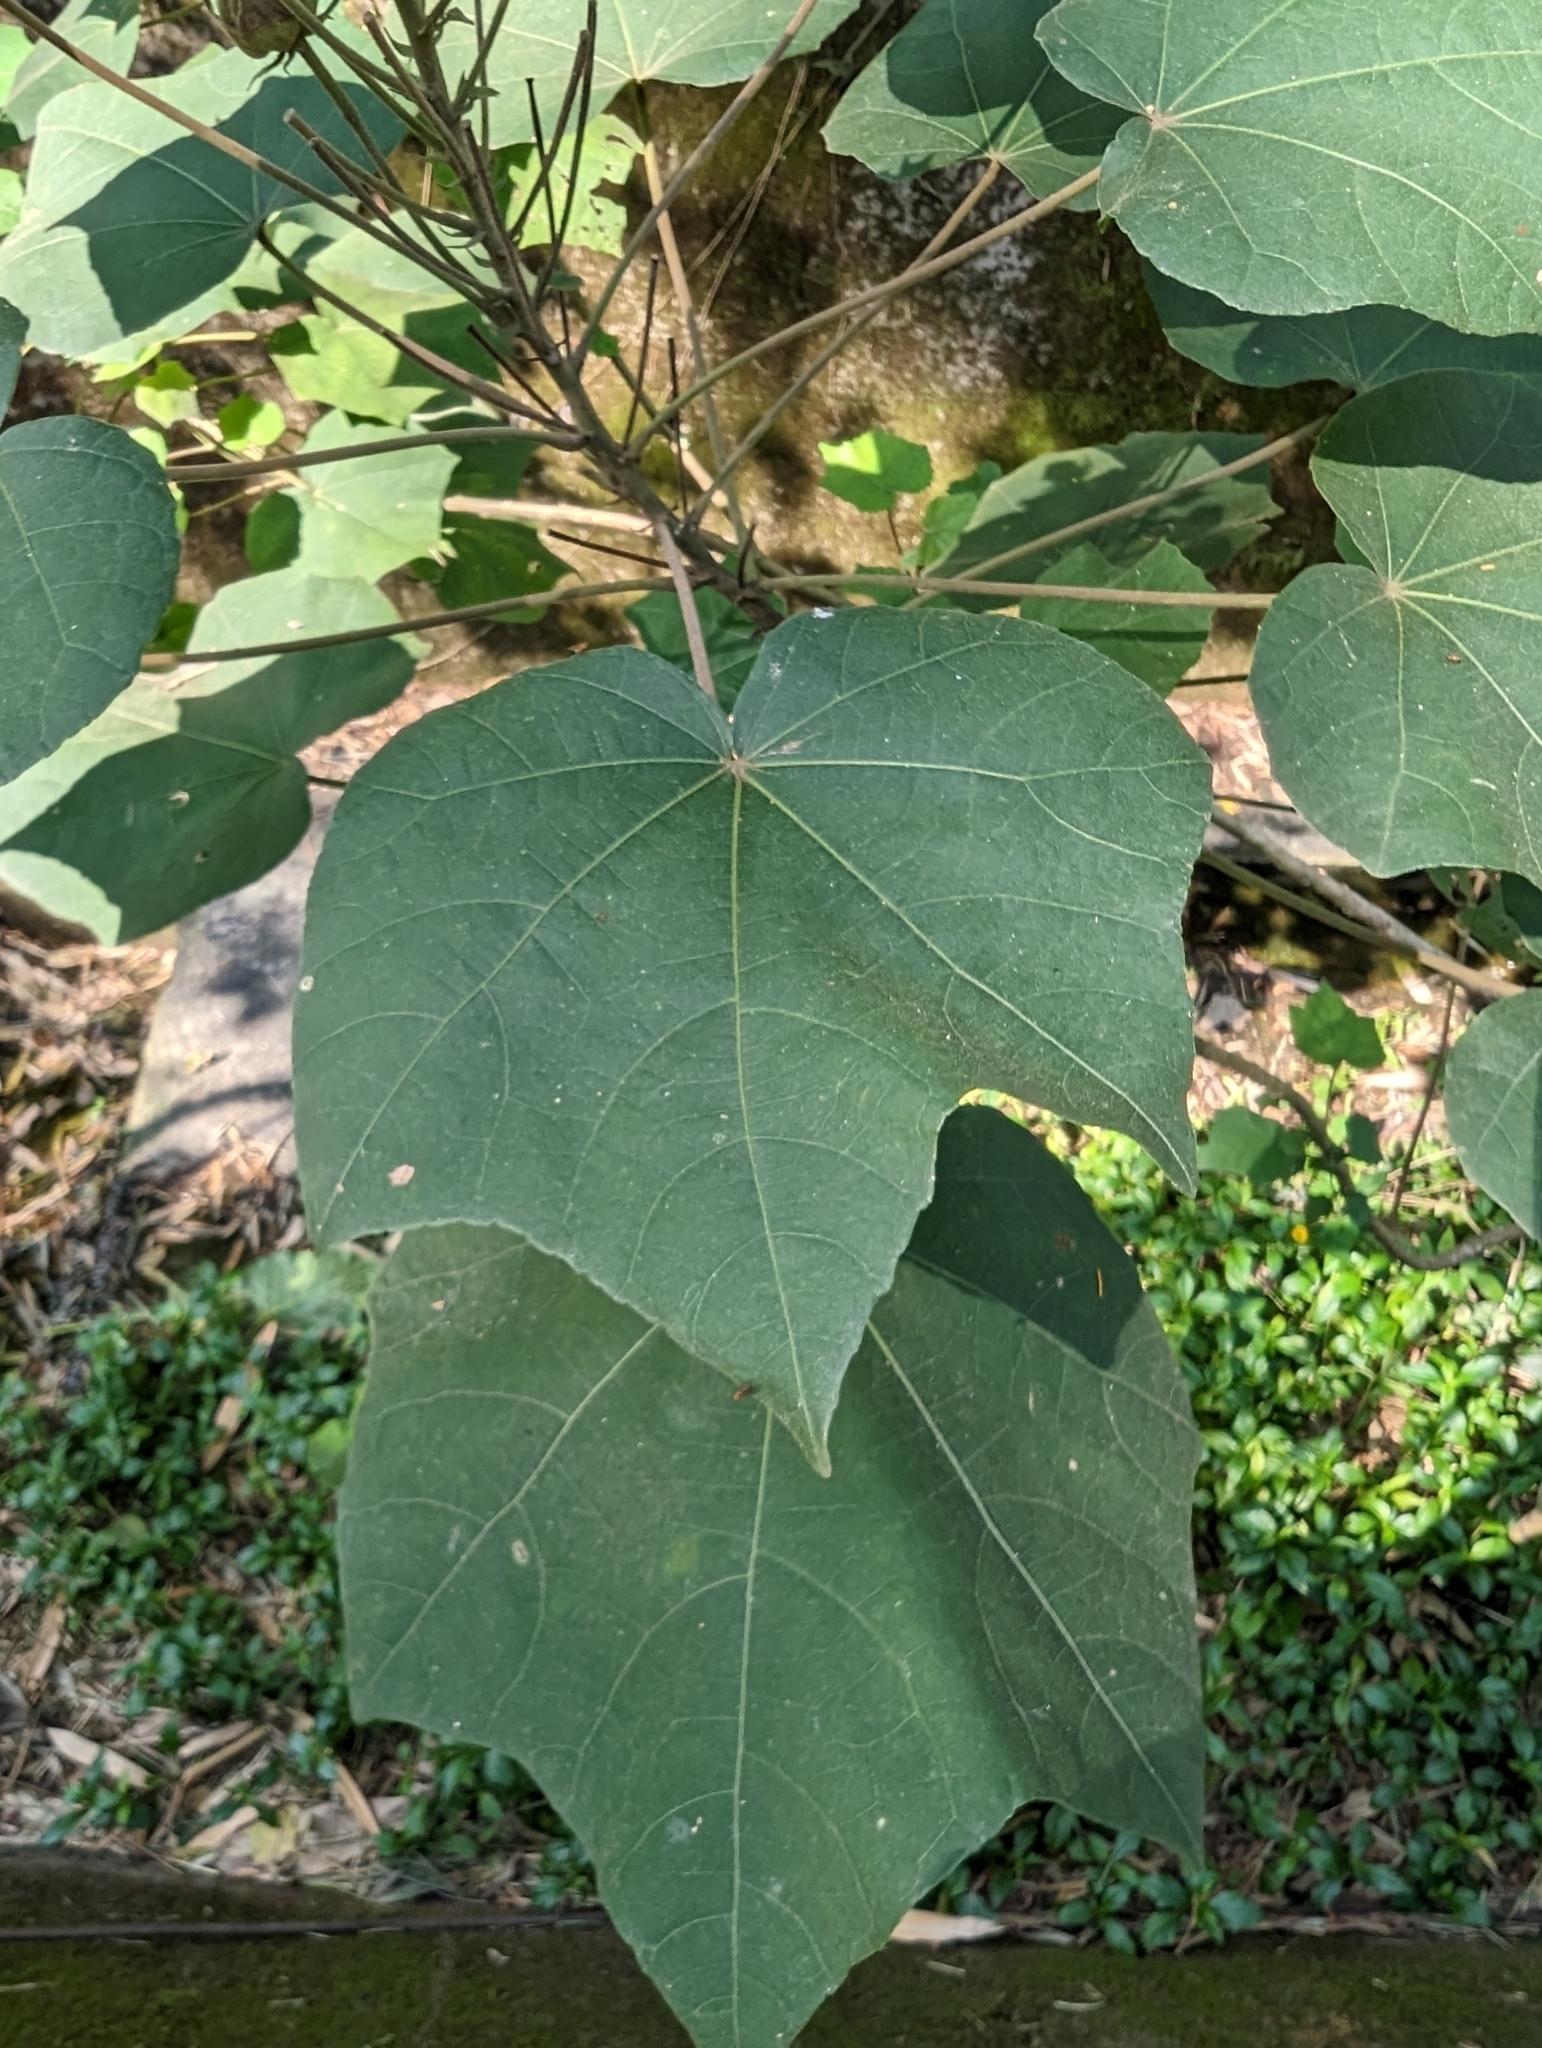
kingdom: Plantae
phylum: Tracheophyta
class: Magnoliopsida
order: Malvales
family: Malvaceae
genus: Hibiscus
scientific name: Hibiscus taiwanensis
